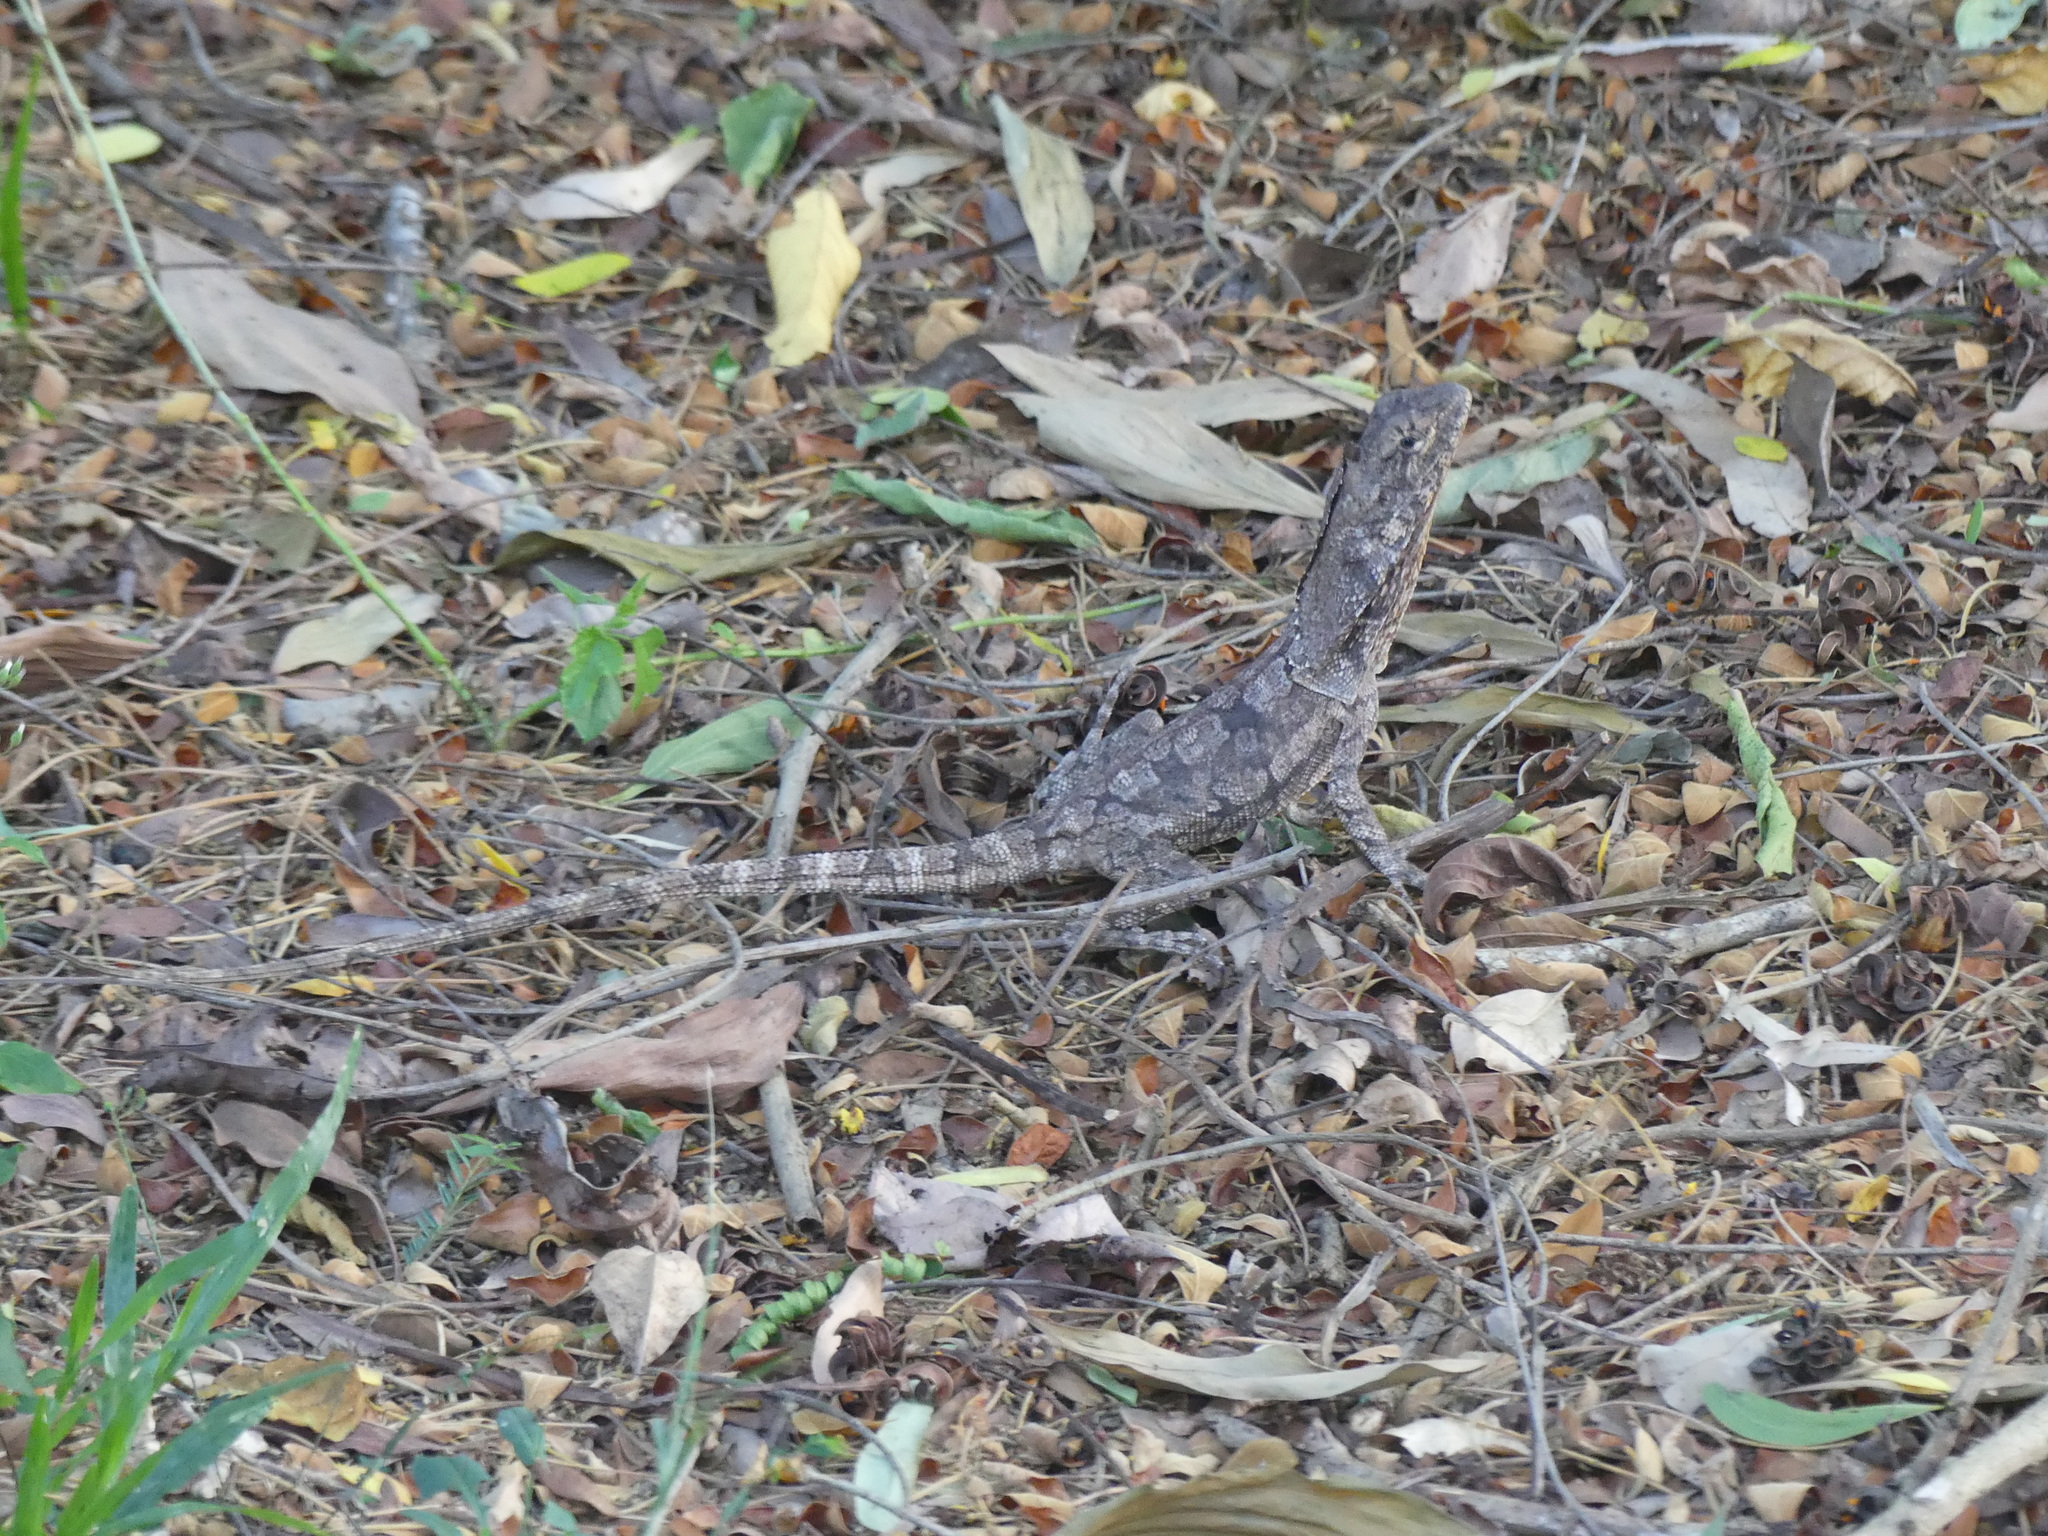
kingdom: Animalia
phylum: Chordata
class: Squamata
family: Agamidae
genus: Chlamydosaurus
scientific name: Chlamydosaurus kingii
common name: Frilled lizard
